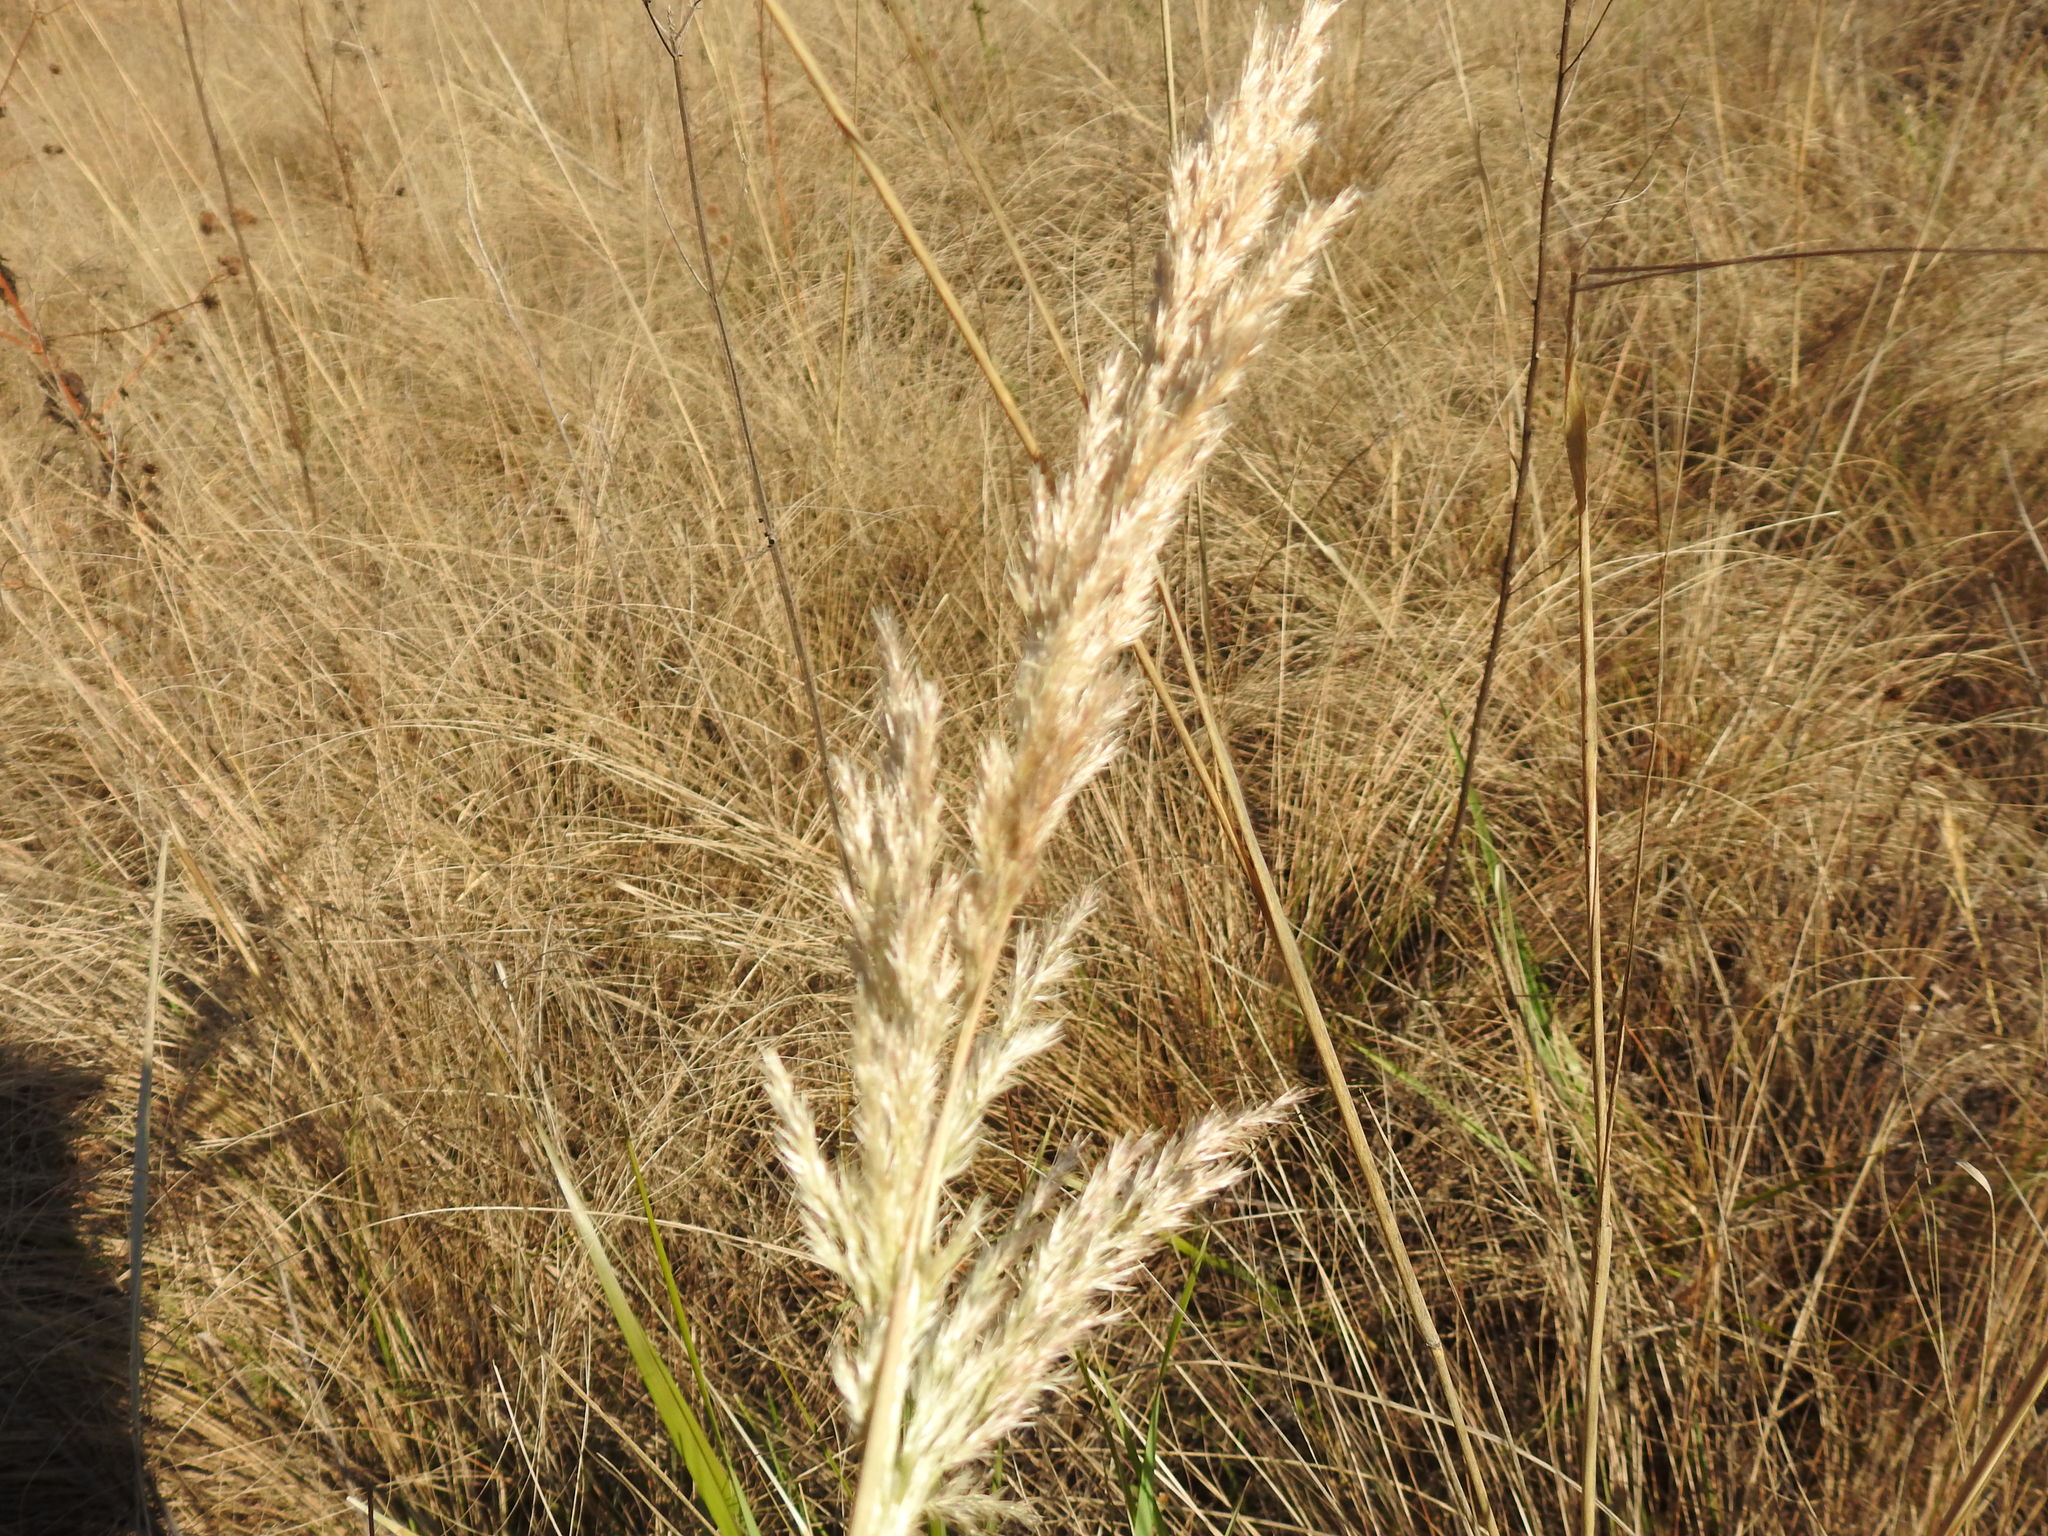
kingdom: Plantae
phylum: Tracheophyta
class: Liliopsida
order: Poales
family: Poaceae
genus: Calamagrostis
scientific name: Calamagrostis epigejos
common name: Wood small-reed
